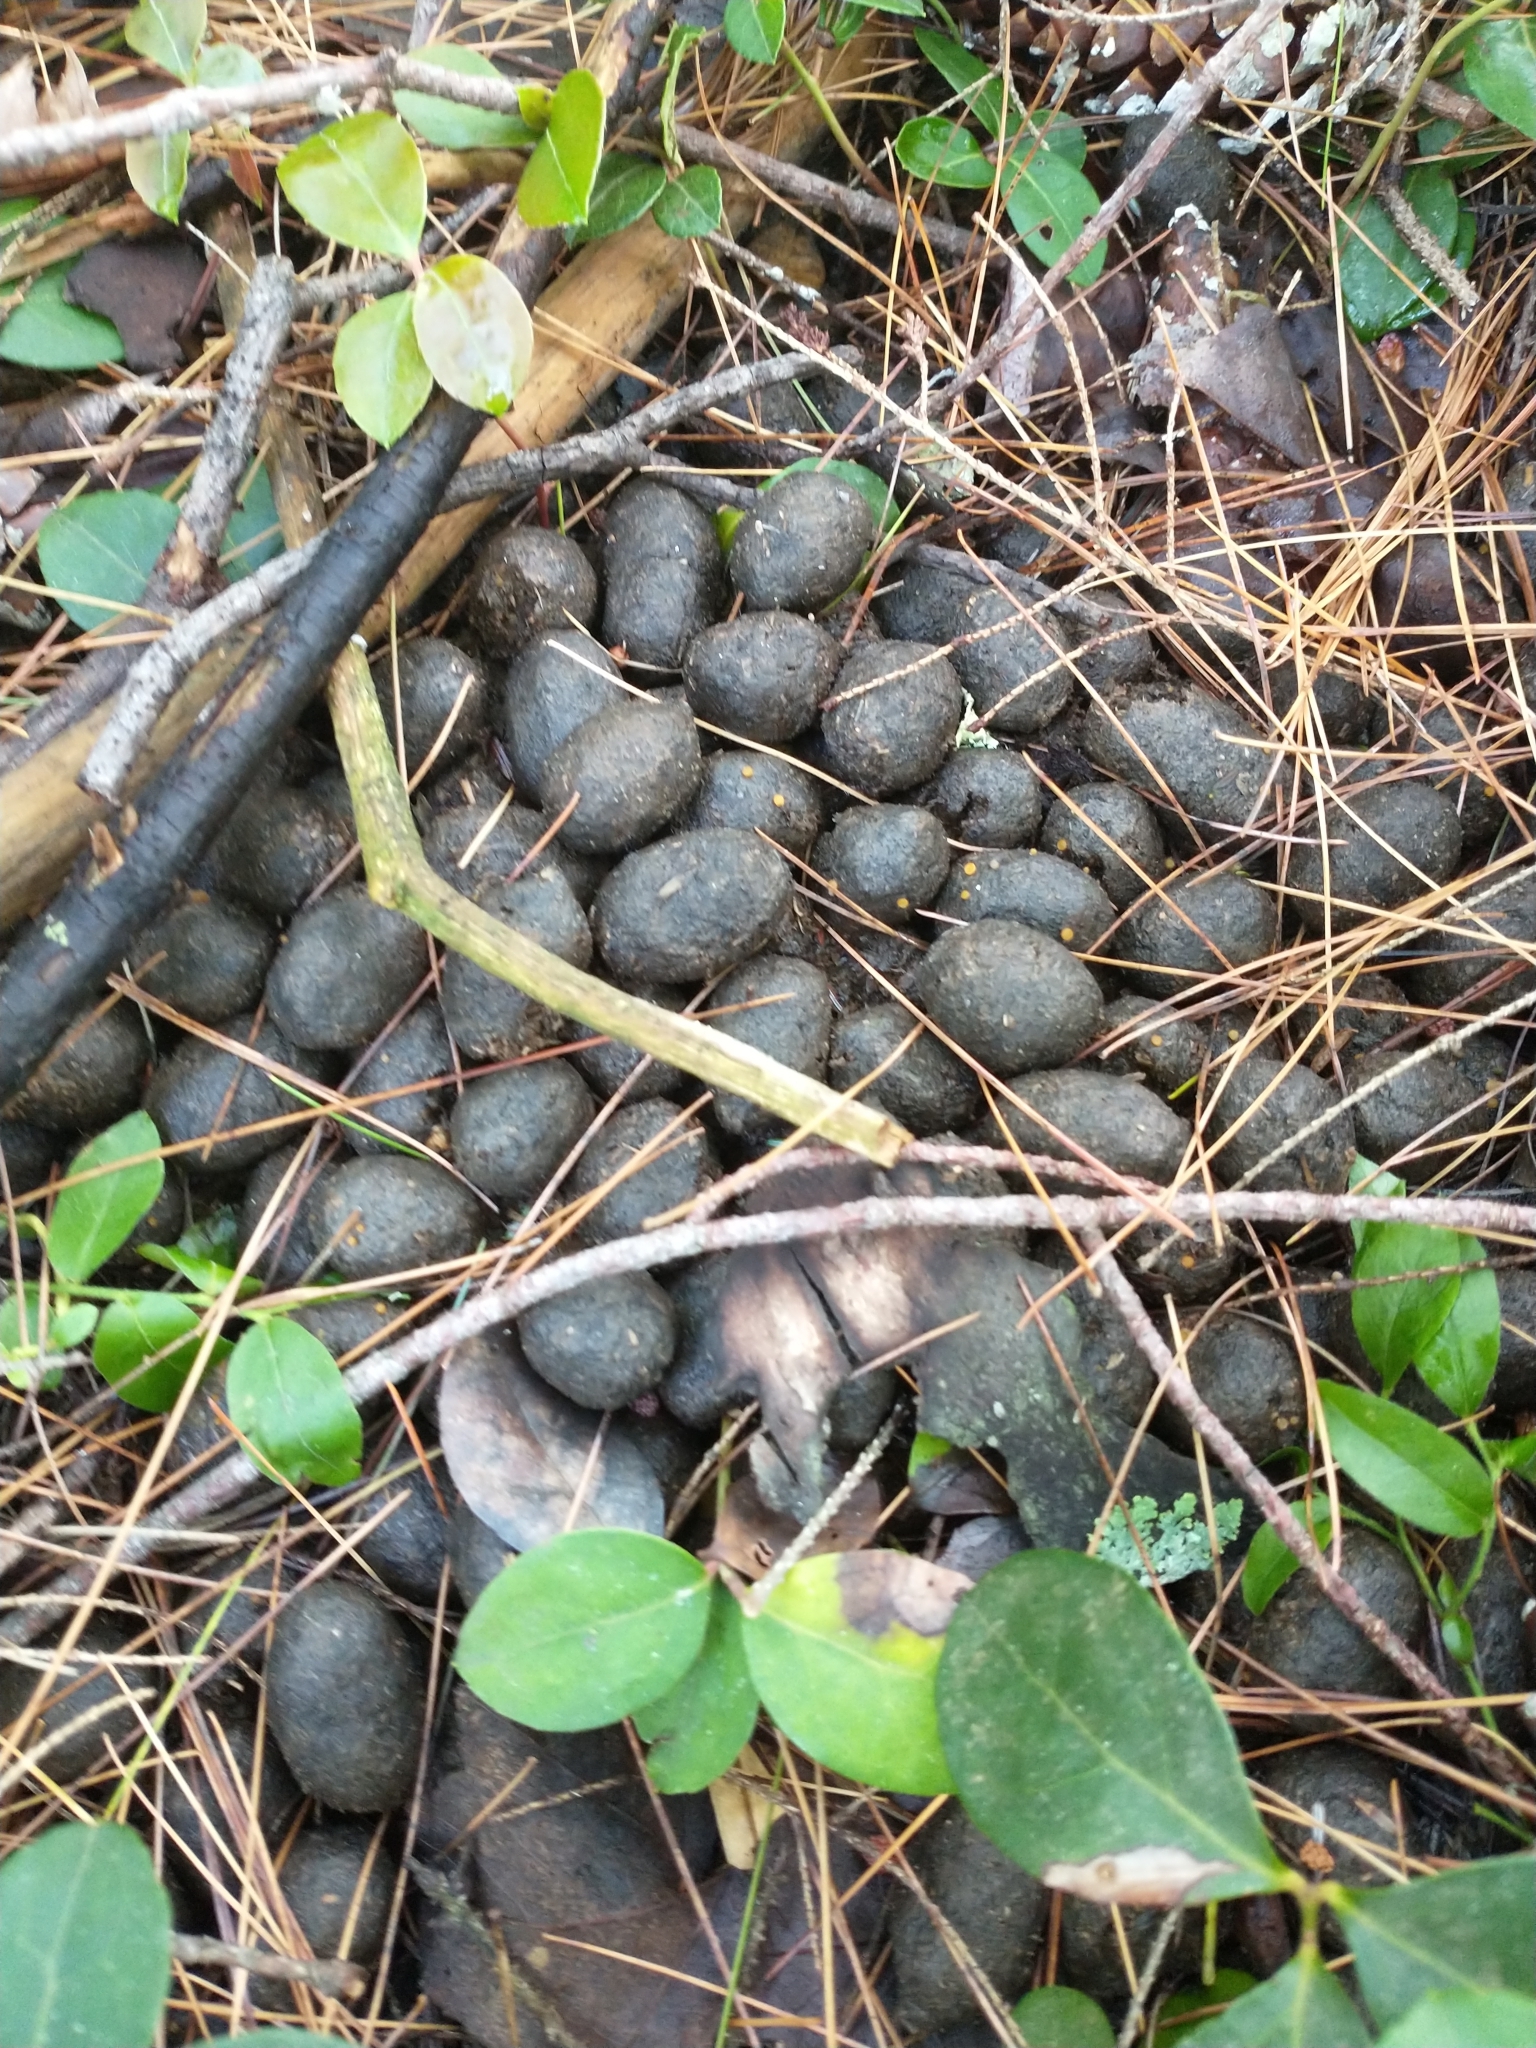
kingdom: Animalia
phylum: Chordata
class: Mammalia
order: Artiodactyla
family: Cervidae
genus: Alces
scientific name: Alces alces
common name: Moose
